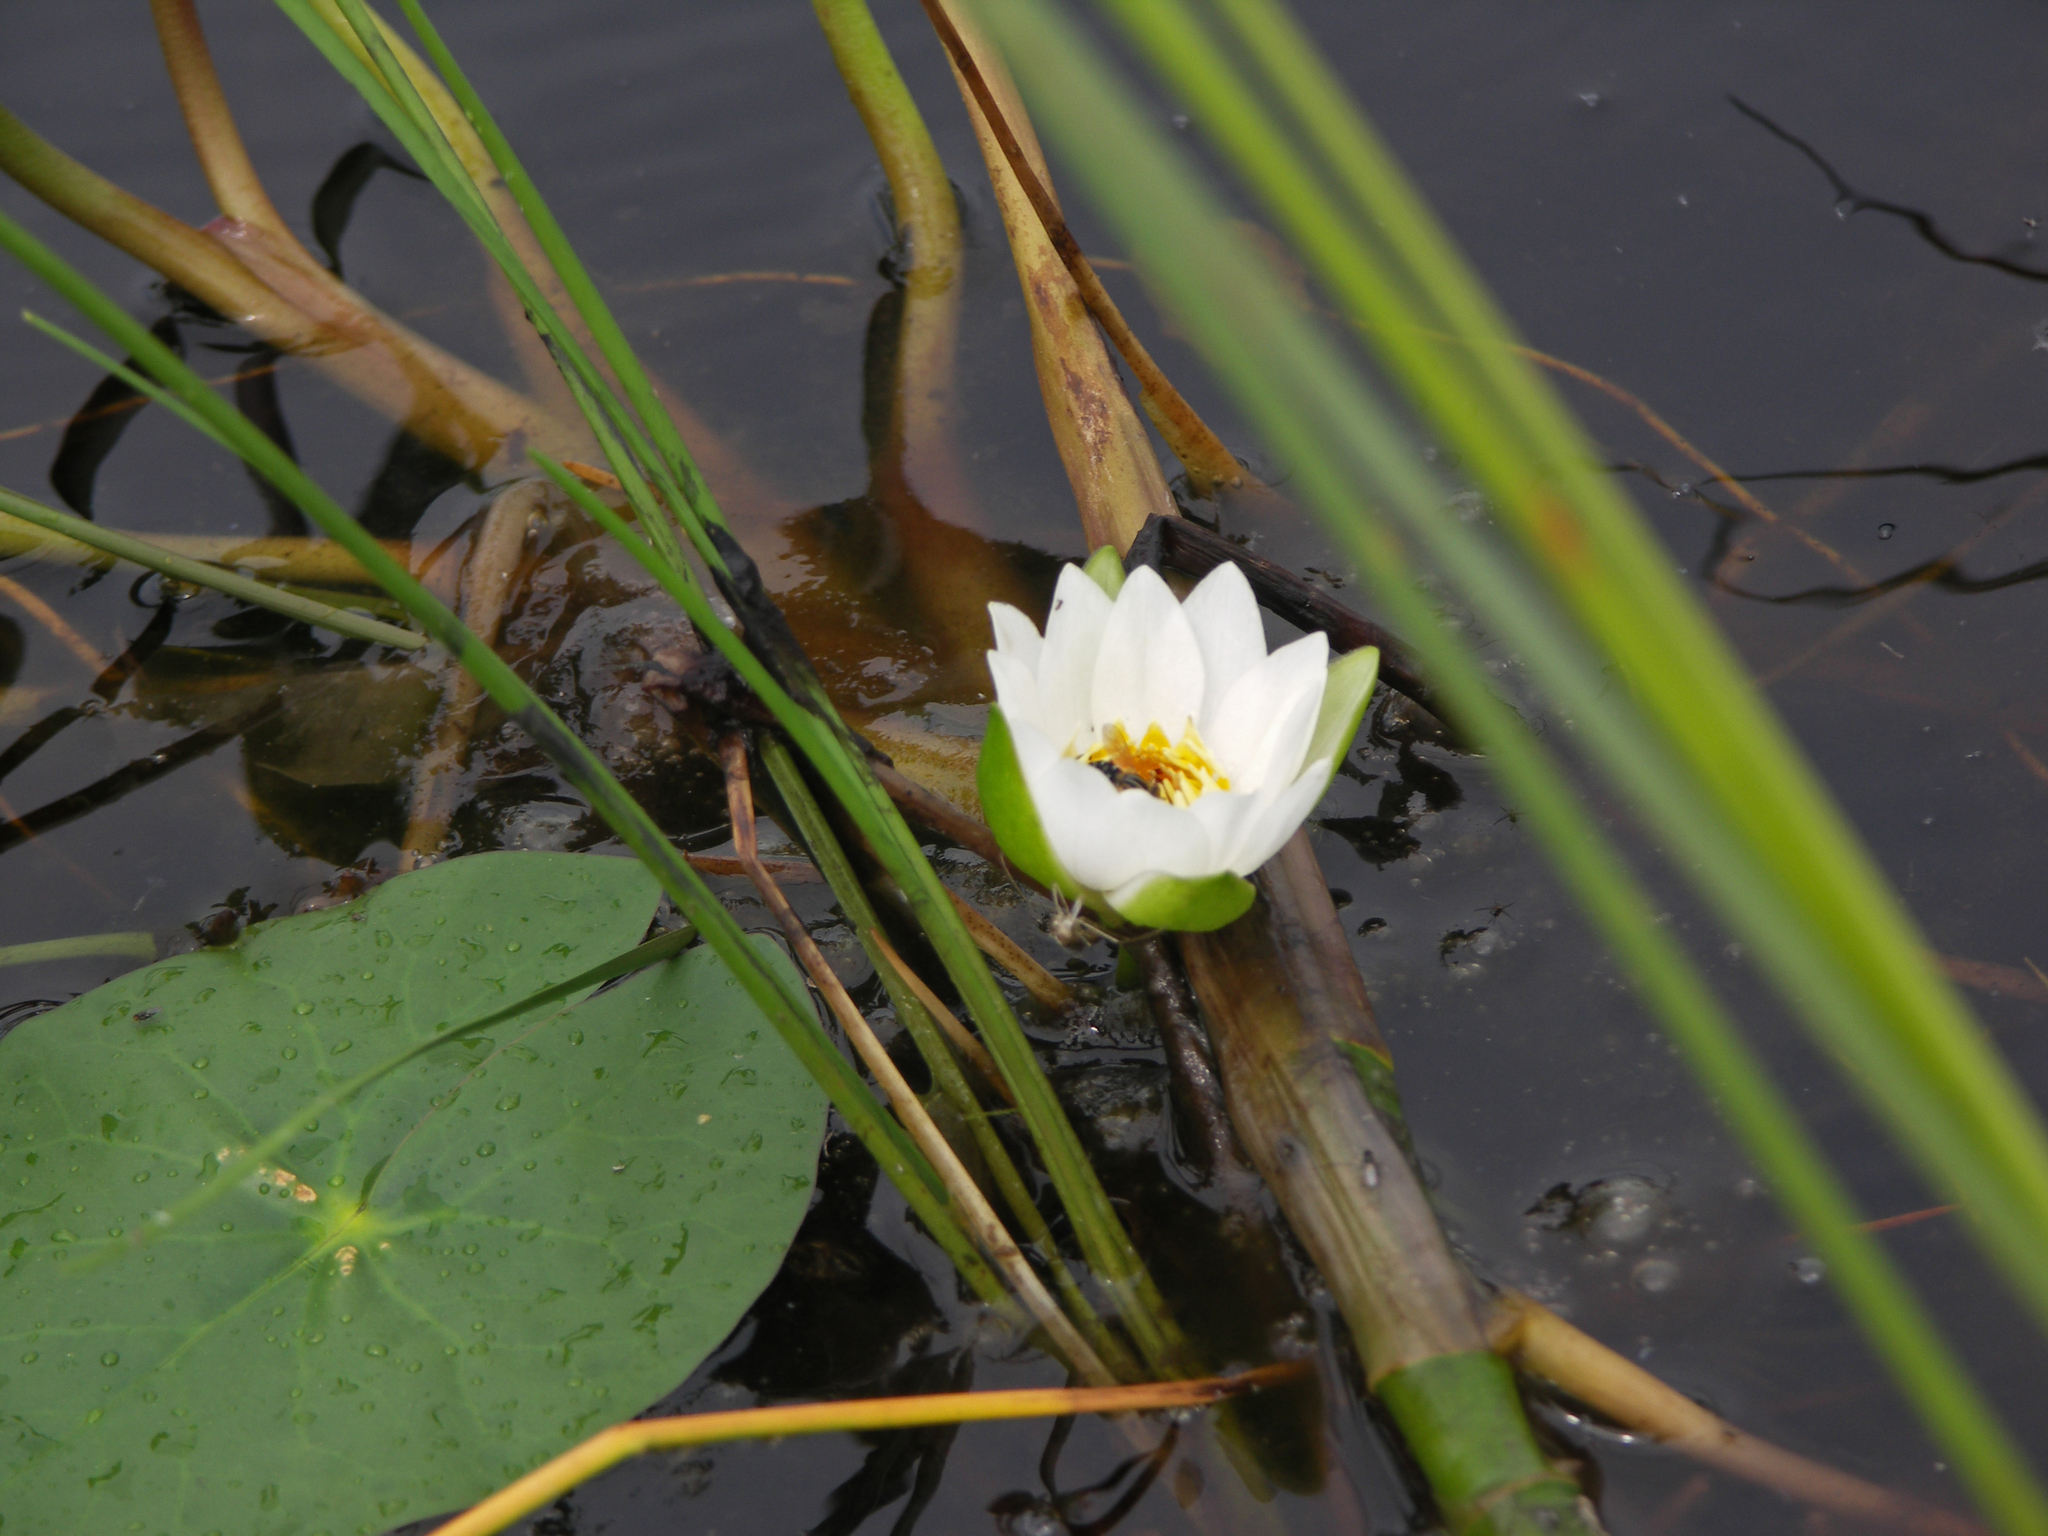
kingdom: Plantae
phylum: Tracheophyta
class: Magnoliopsida
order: Nymphaeales
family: Nymphaeaceae
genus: Nymphaea
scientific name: Nymphaea tetragona
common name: Pygmy water-lily
